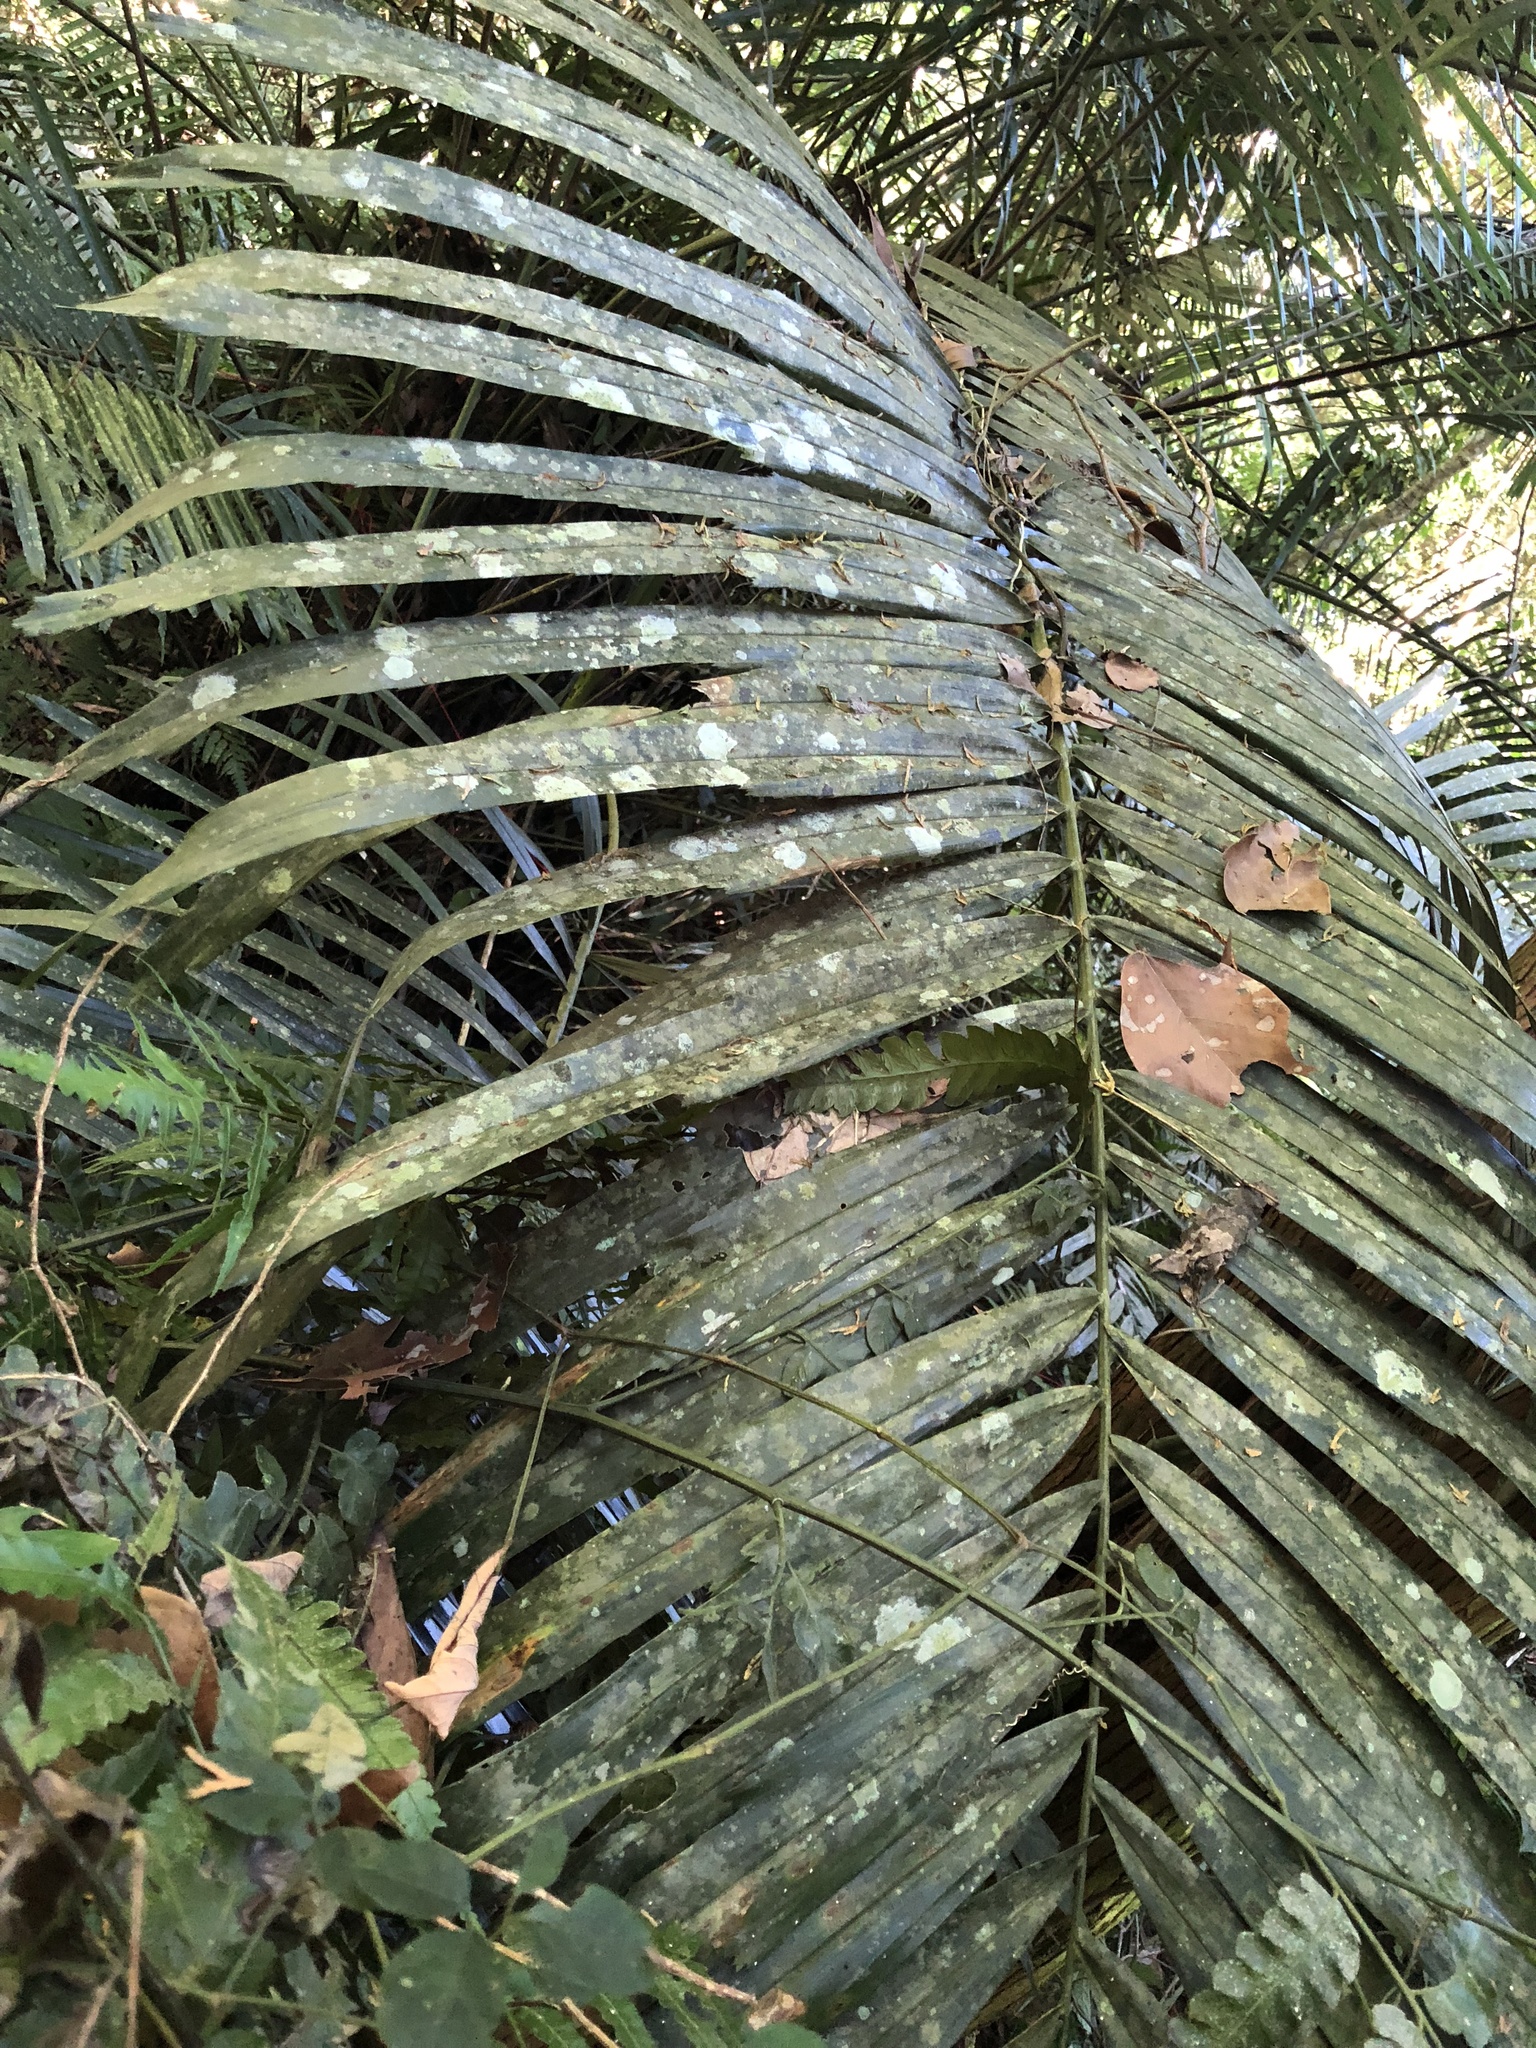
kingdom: Plantae
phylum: Tracheophyta
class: Liliopsida
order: Arecales
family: Arecaceae
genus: Arenga
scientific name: Arenga engleri
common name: Formosan sugar palm
